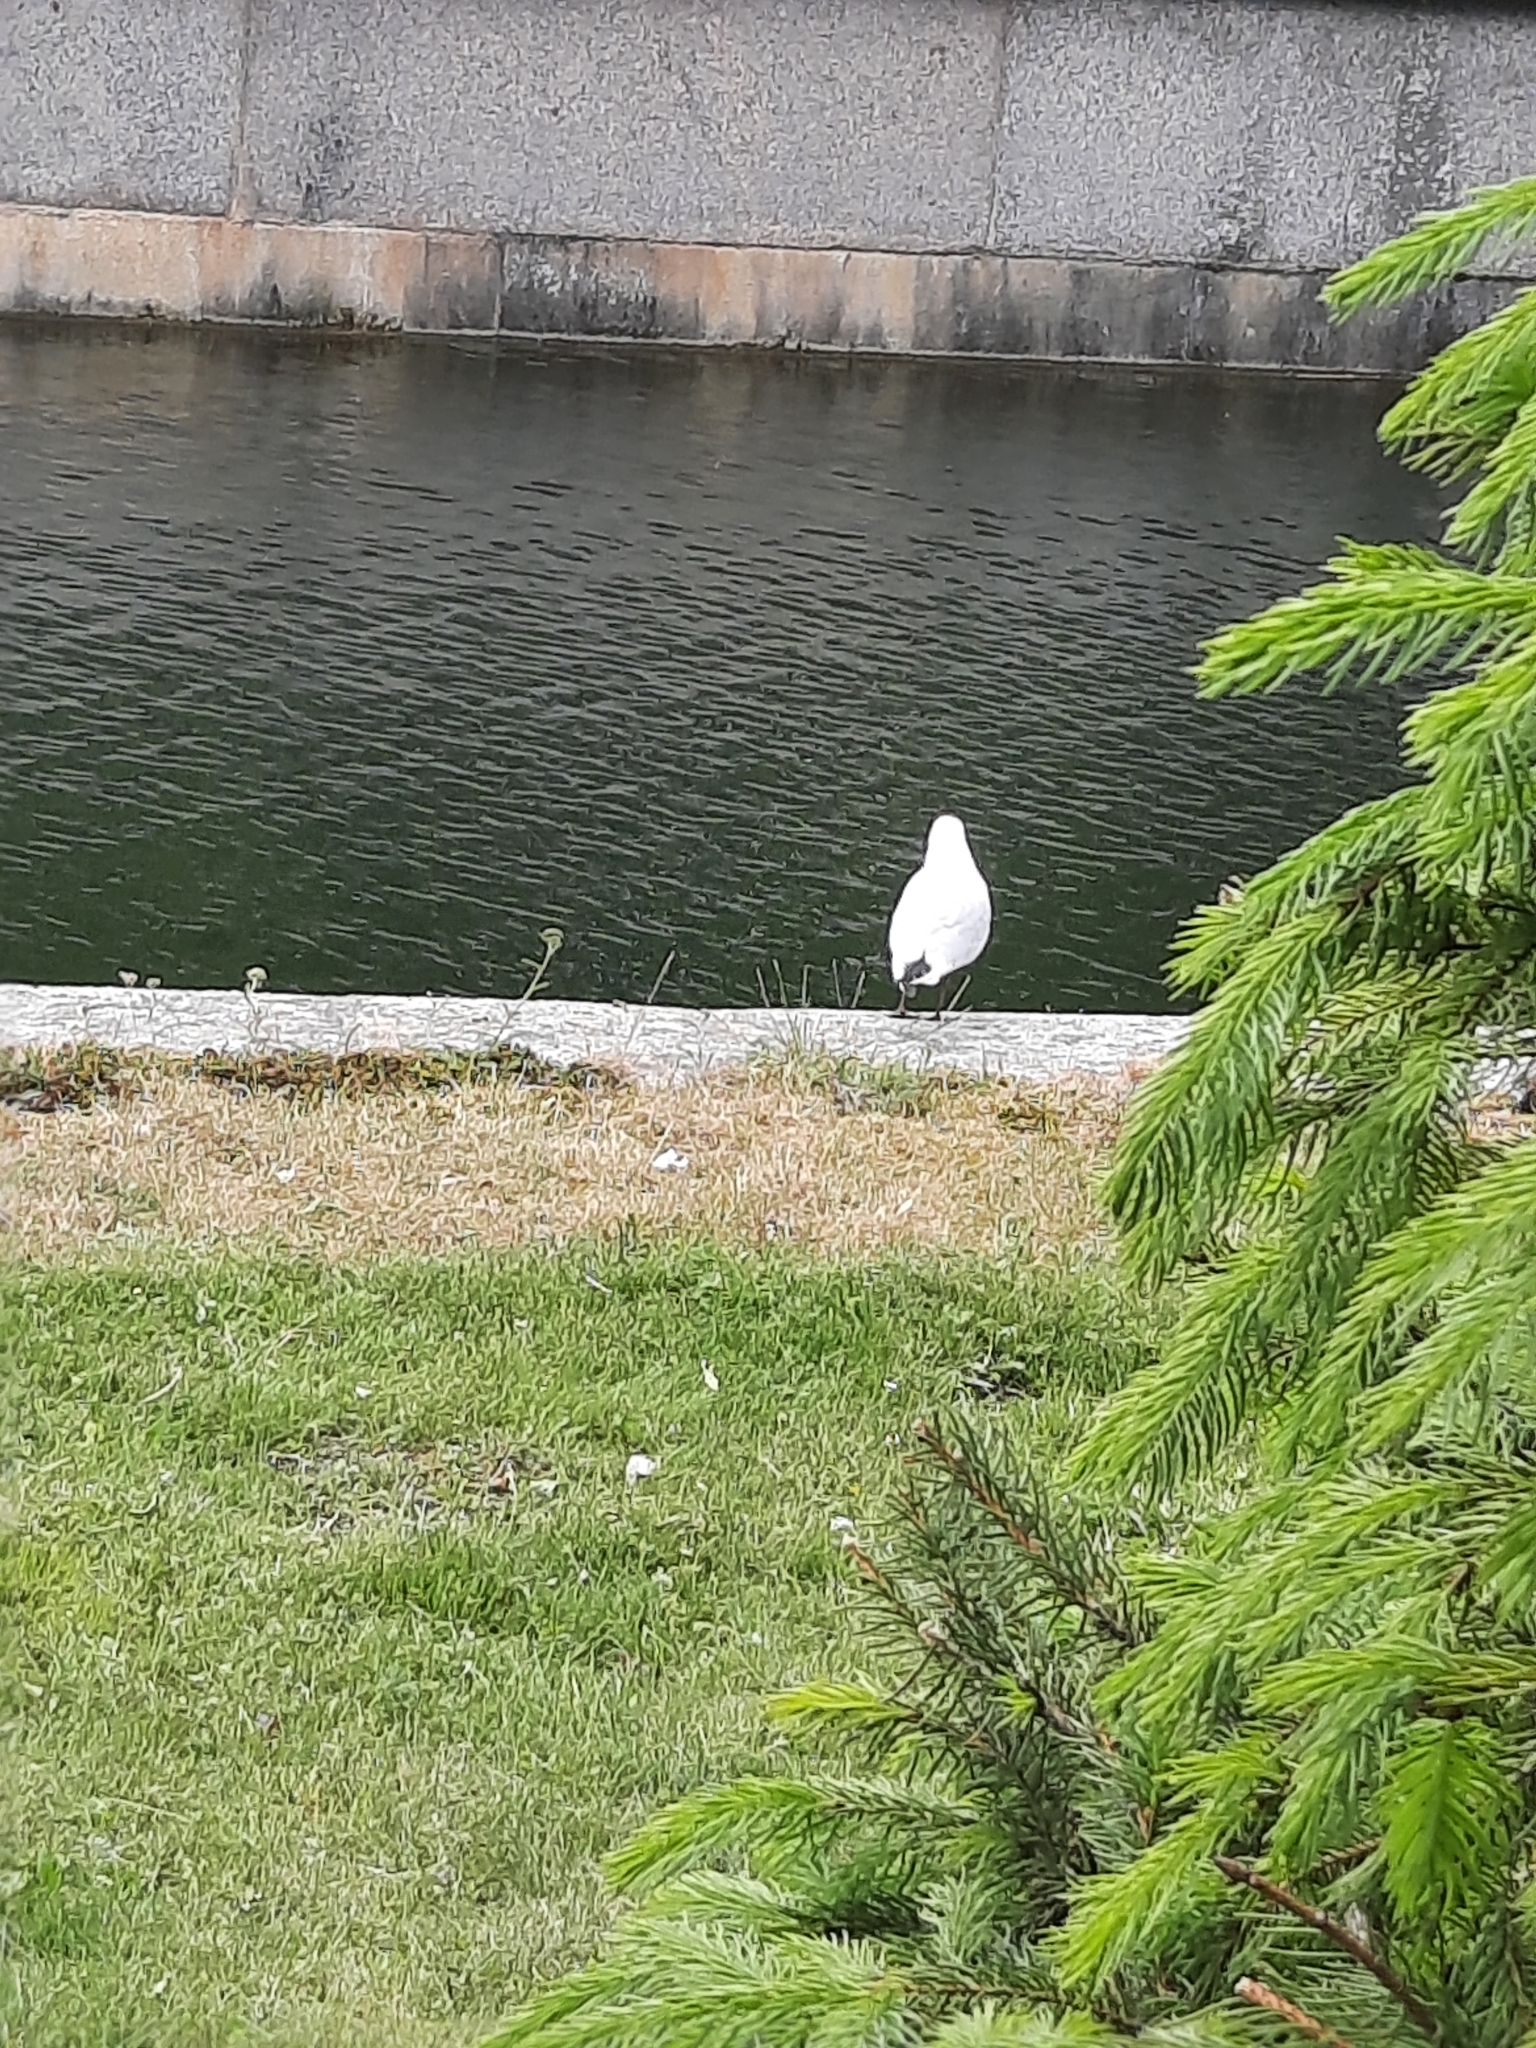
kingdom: Animalia
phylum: Chordata
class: Aves
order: Charadriiformes
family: Laridae
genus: Chroicocephalus
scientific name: Chroicocephalus ridibundus
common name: Black-headed gull
